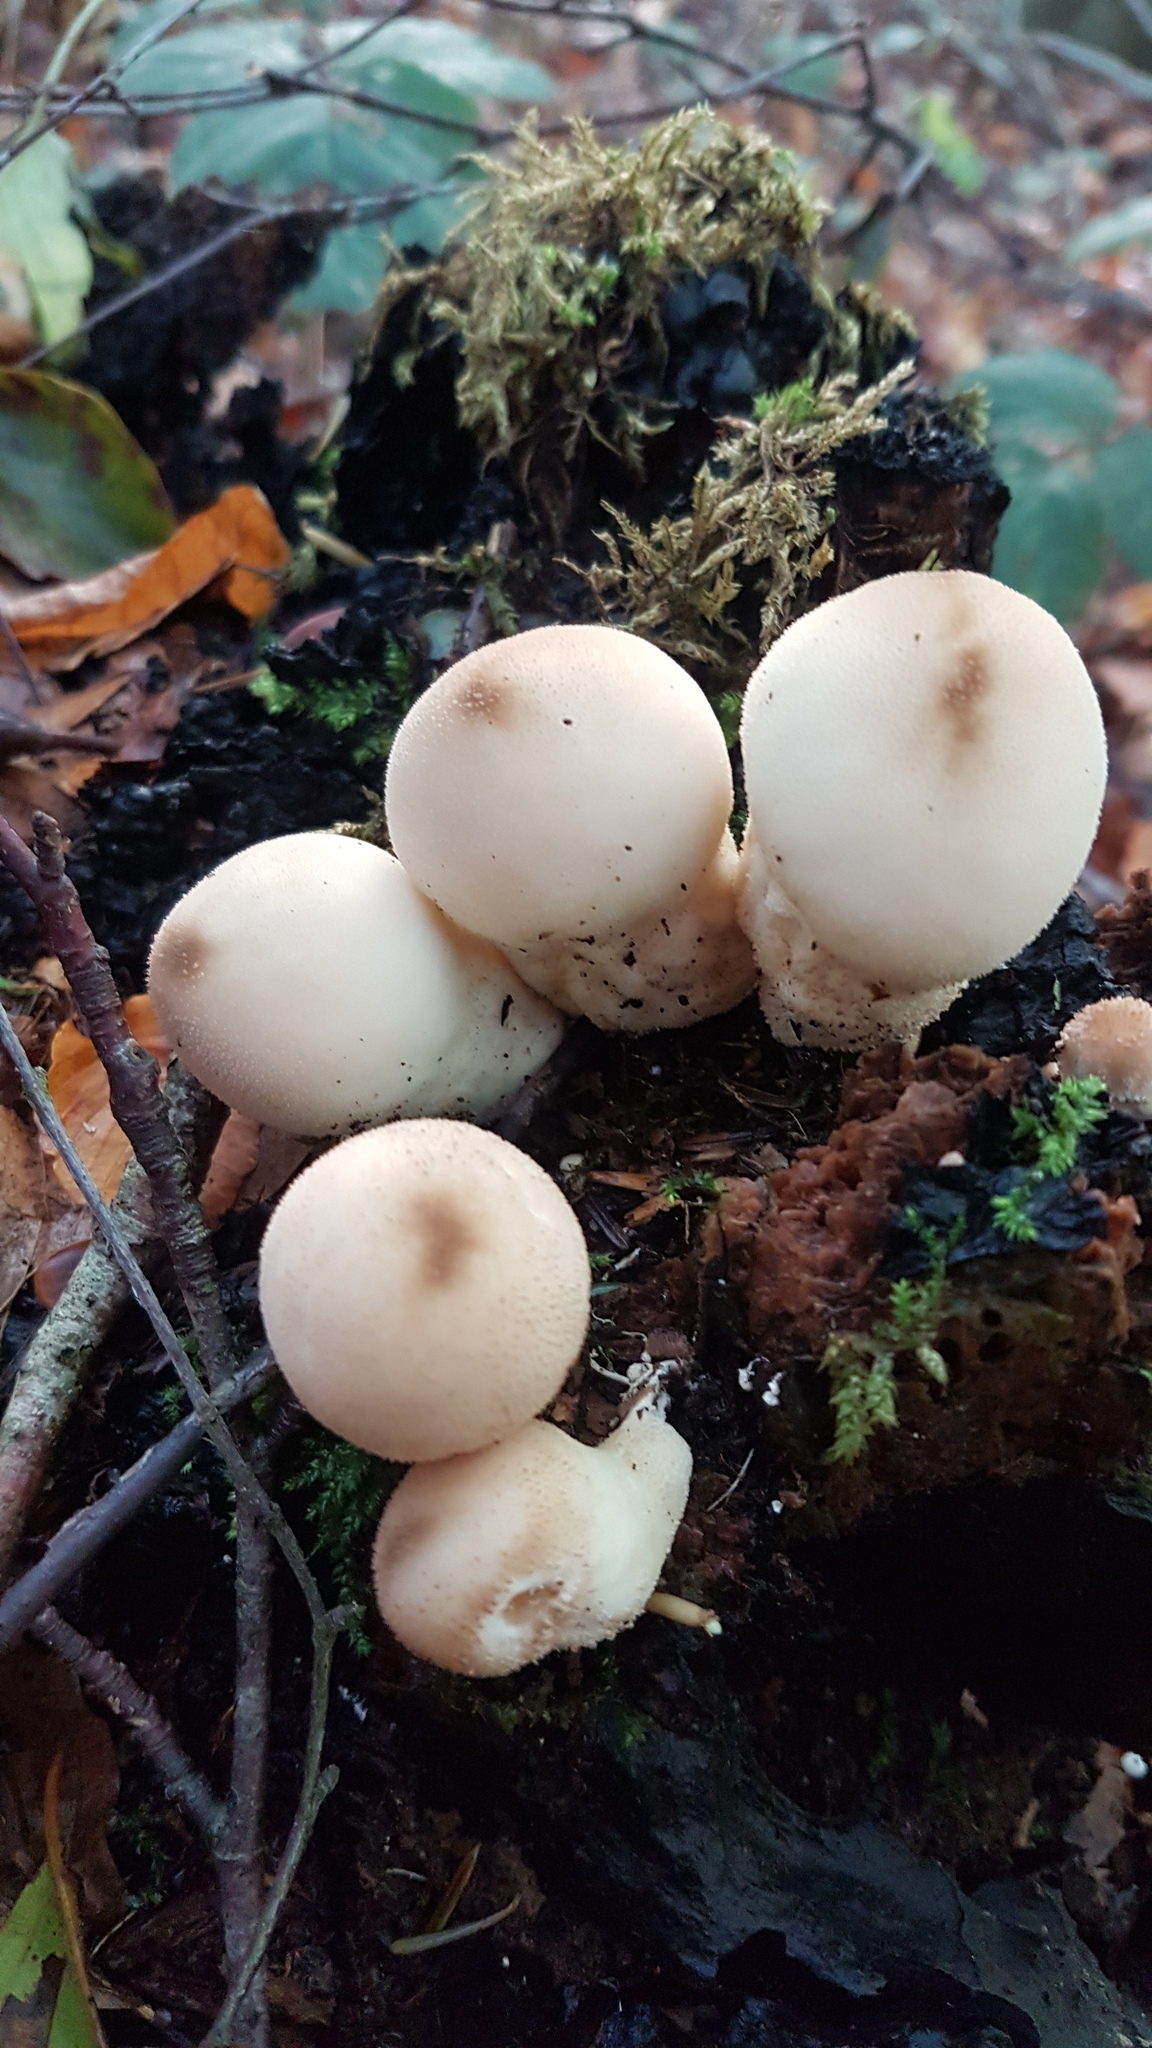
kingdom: Fungi
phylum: Basidiomycota
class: Agaricomycetes
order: Agaricales
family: Lycoperdaceae
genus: Apioperdon
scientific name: Apioperdon pyriforme
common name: Pear-shaped puffball
